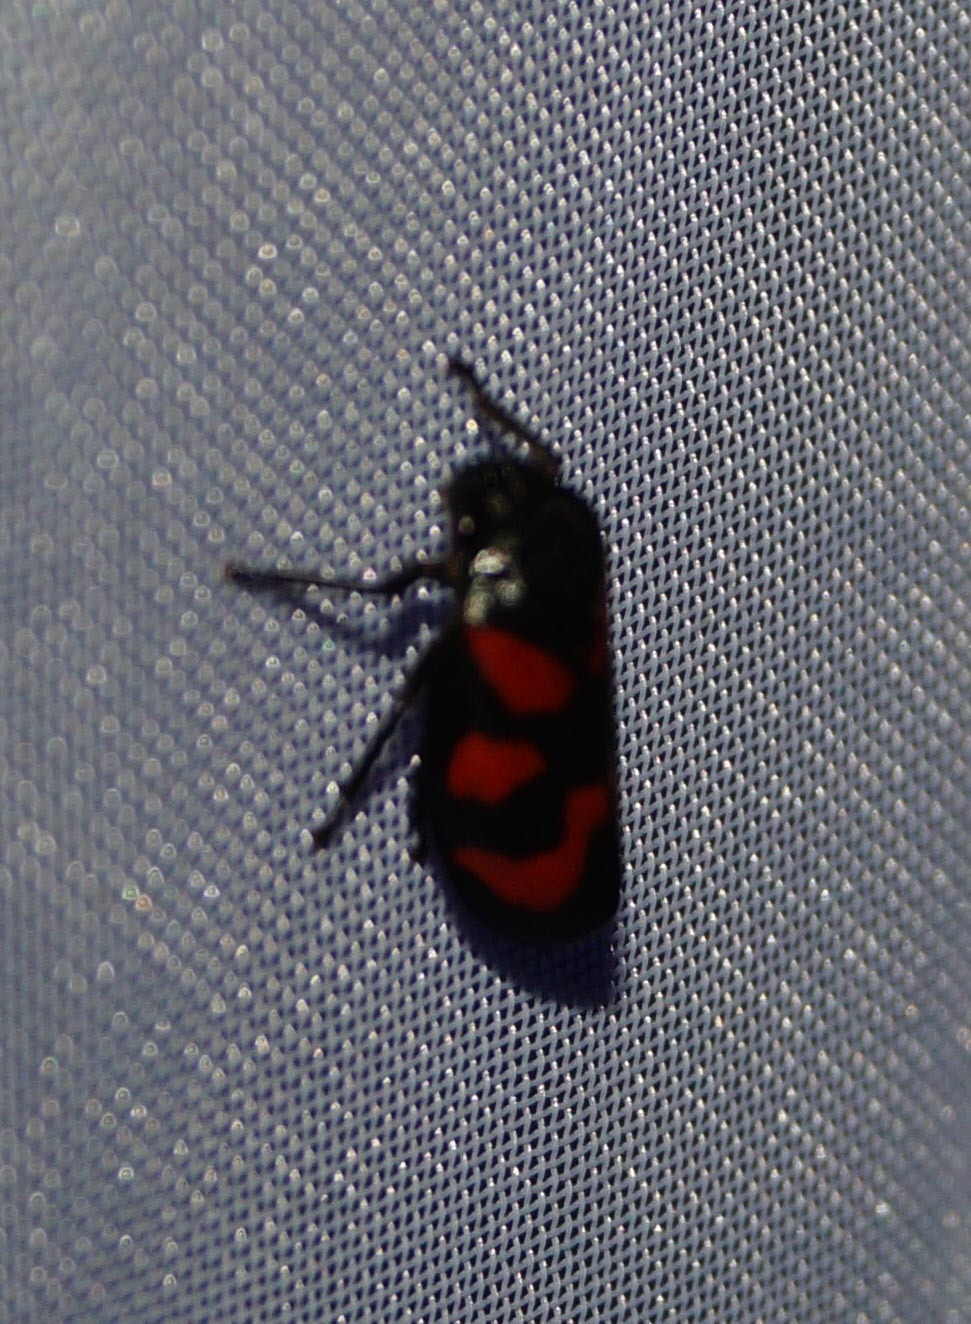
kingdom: Animalia
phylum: Arthropoda
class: Insecta
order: Hemiptera
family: Cercopidae
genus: Cercopis
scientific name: Cercopis vulnerata
